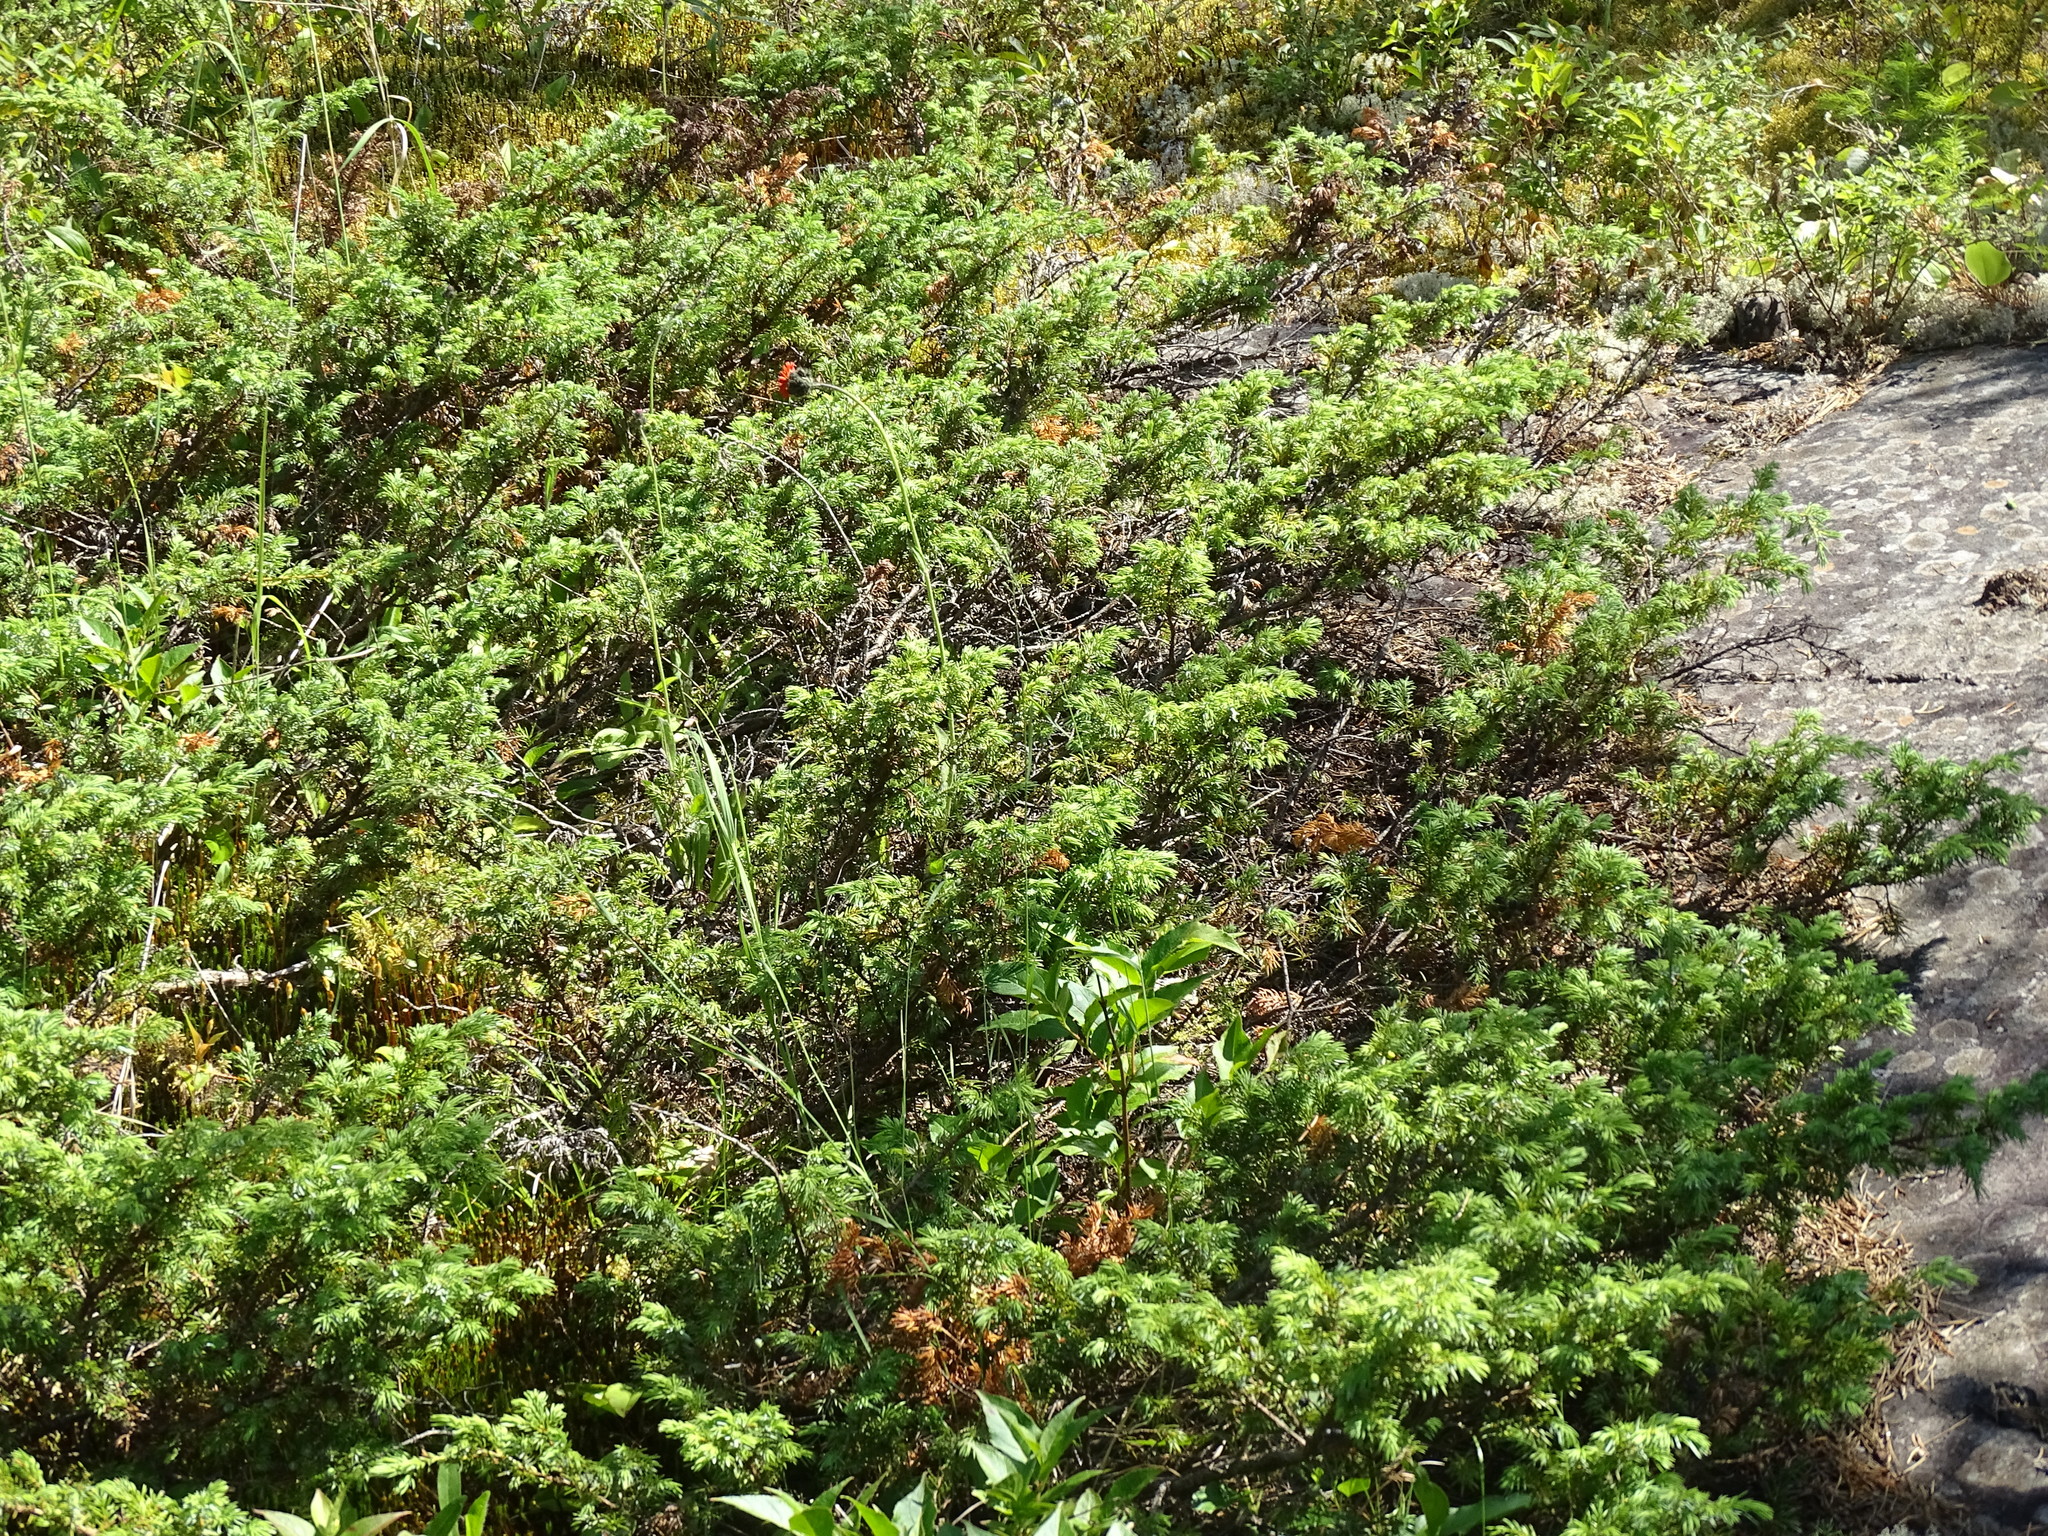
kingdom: Plantae
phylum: Tracheophyta
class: Pinopsida
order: Pinales
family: Cupressaceae
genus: Juniperus
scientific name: Juniperus communis
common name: Common juniper
